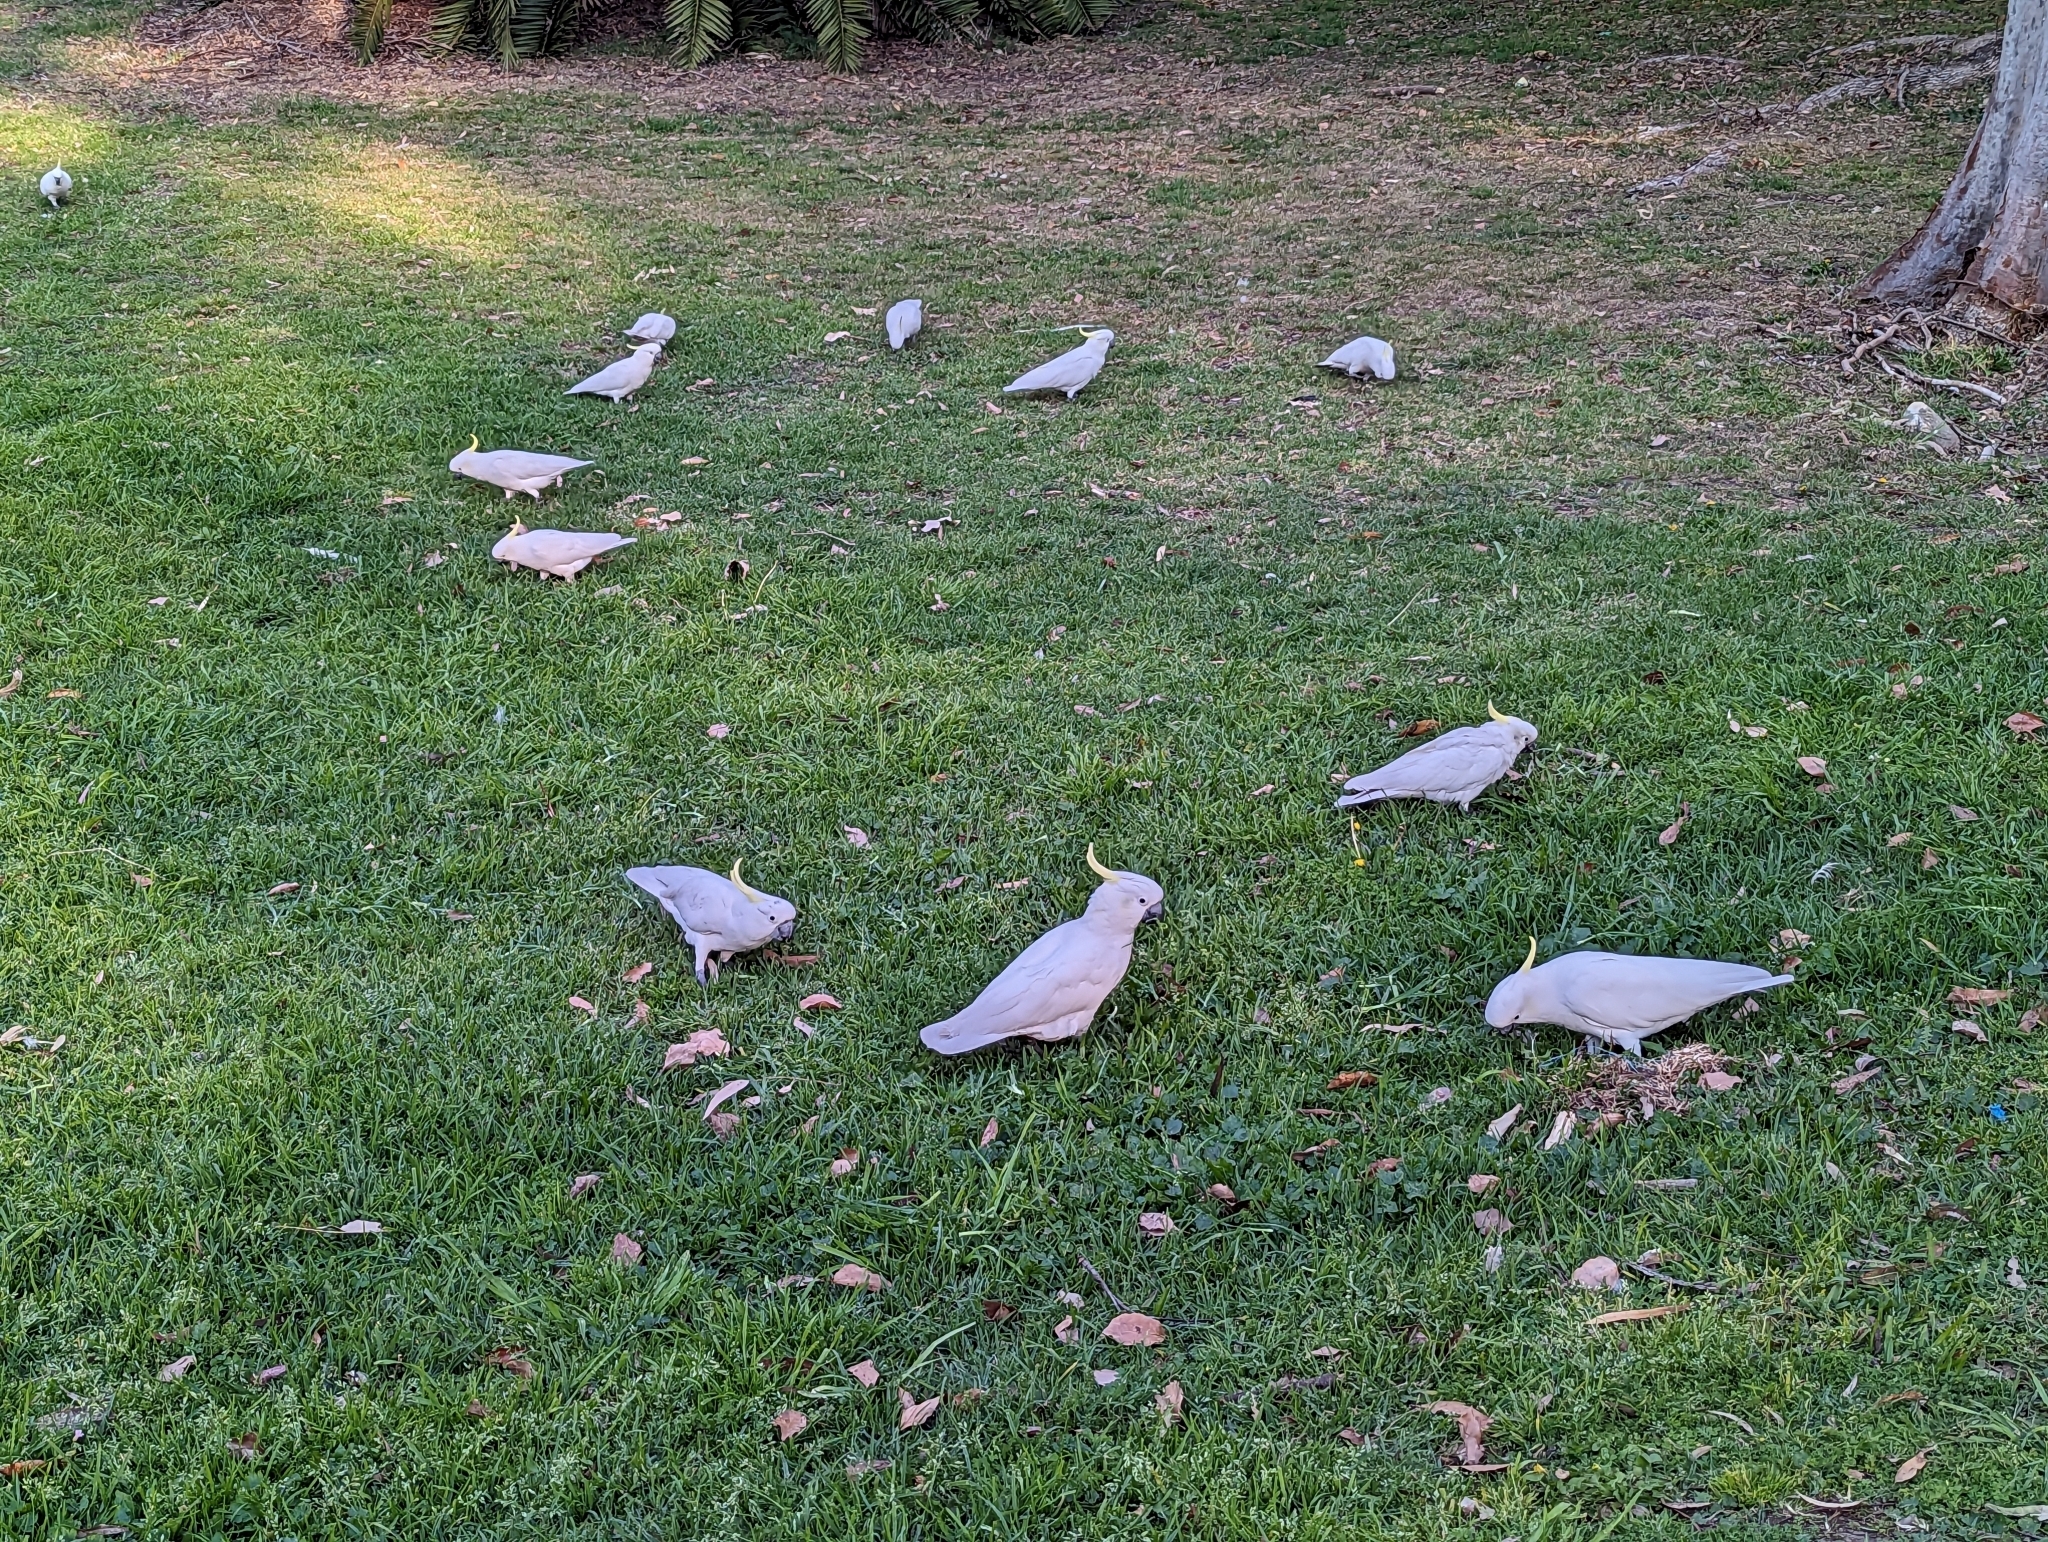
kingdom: Animalia
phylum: Chordata
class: Aves
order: Psittaciformes
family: Psittacidae
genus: Cacatua
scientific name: Cacatua galerita
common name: Sulphur-crested cockatoo
